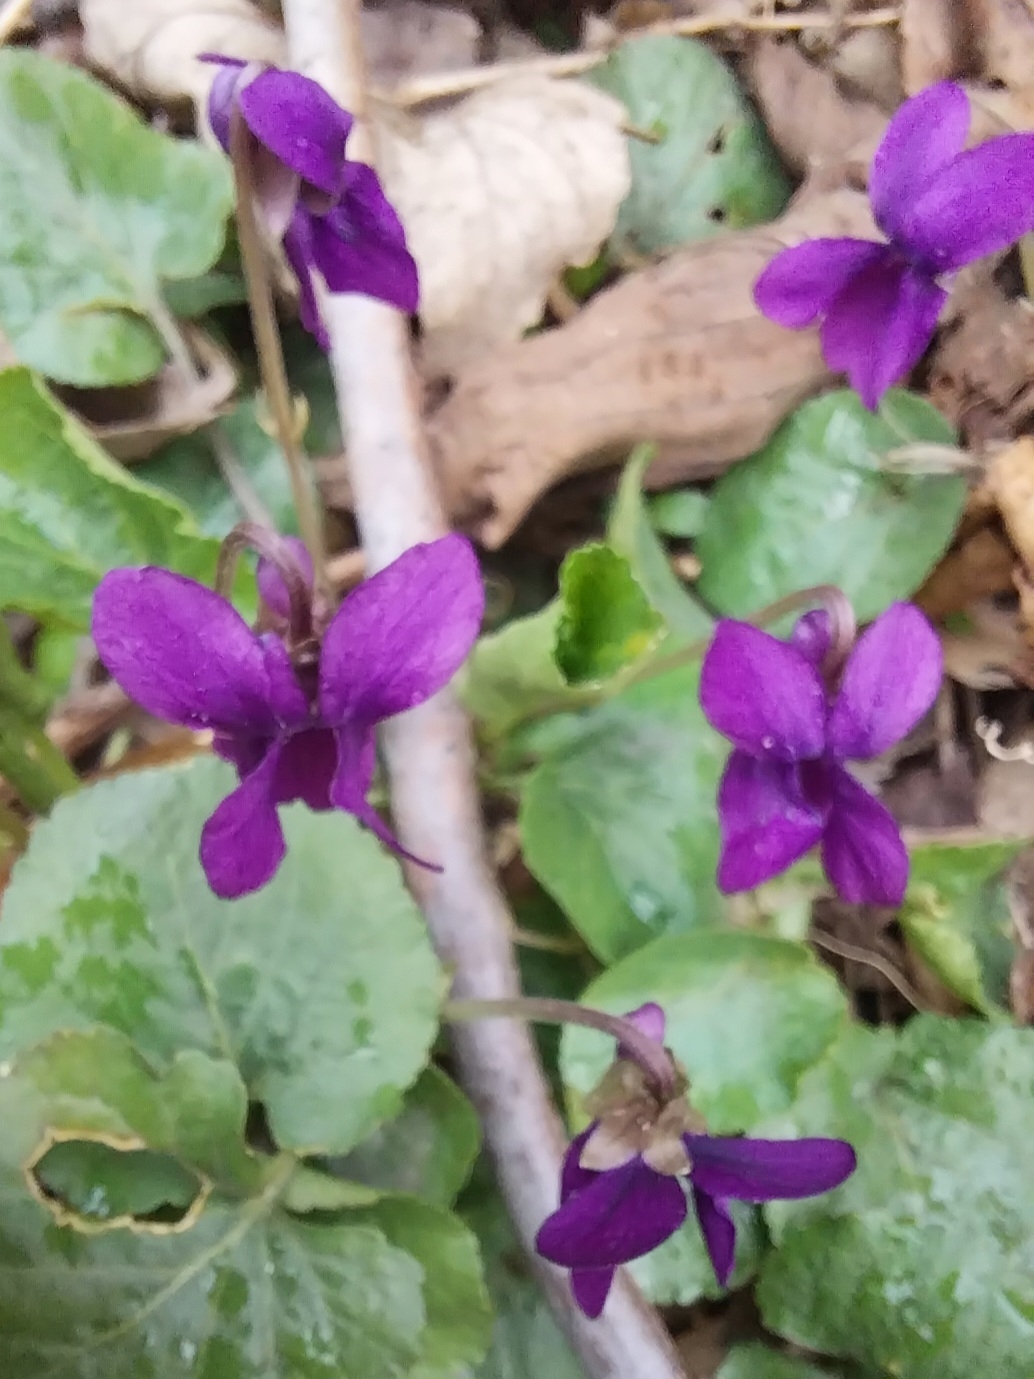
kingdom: Plantae
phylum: Tracheophyta
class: Magnoliopsida
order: Malpighiales
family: Violaceae
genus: Viola
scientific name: Viola odorata
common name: Sweet violet
